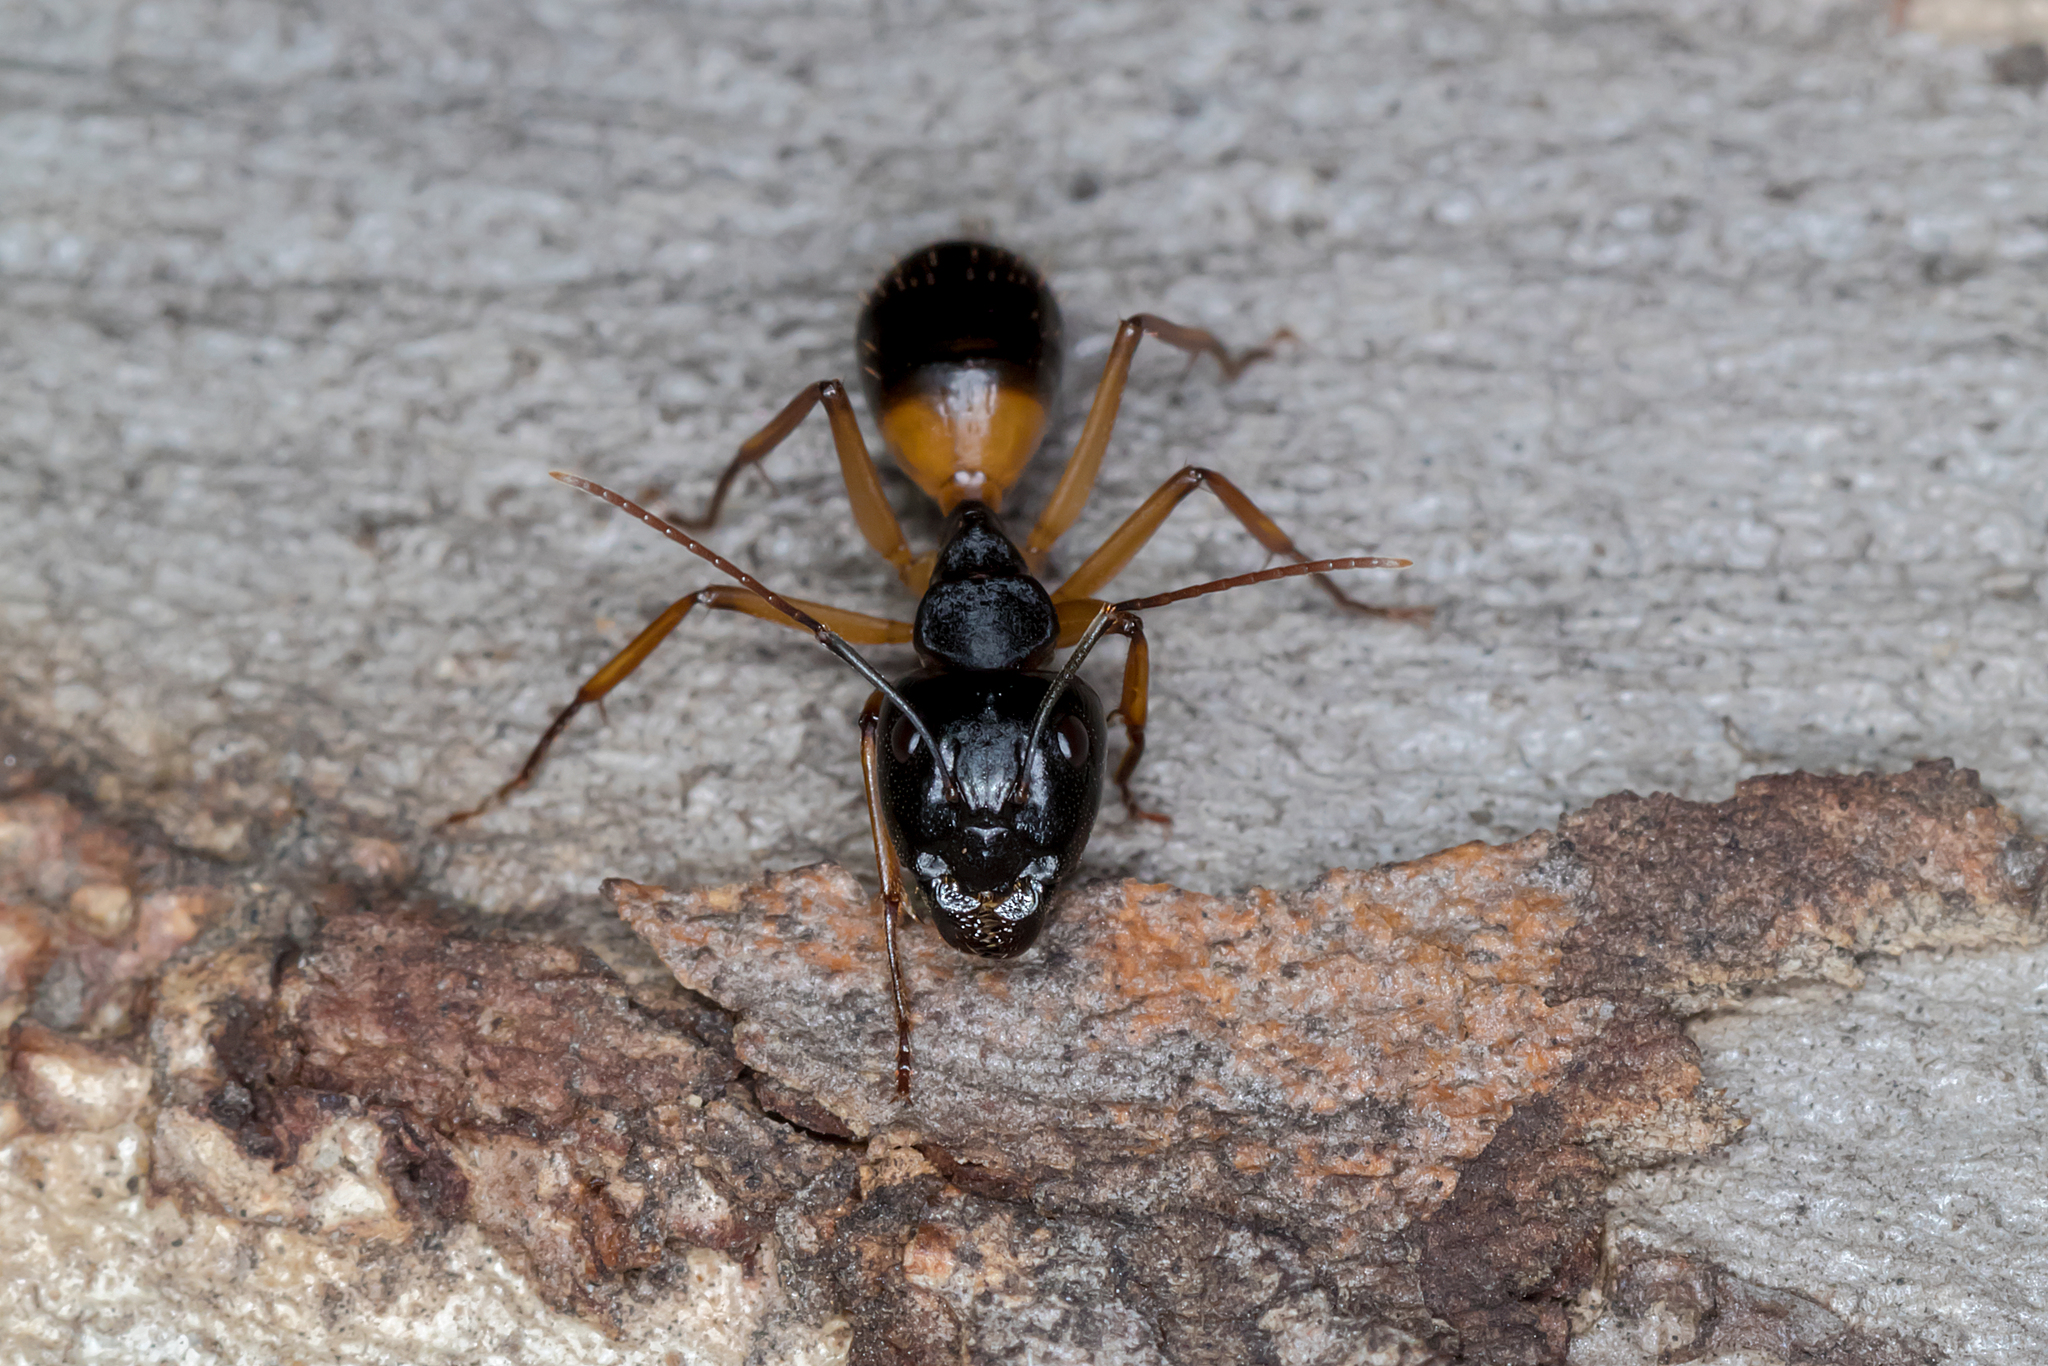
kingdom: Animalia
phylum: Arthropoda
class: Insecta
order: Hymenoptera
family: Formicidae
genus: Camponotus
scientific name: Camponotus consobrinus
